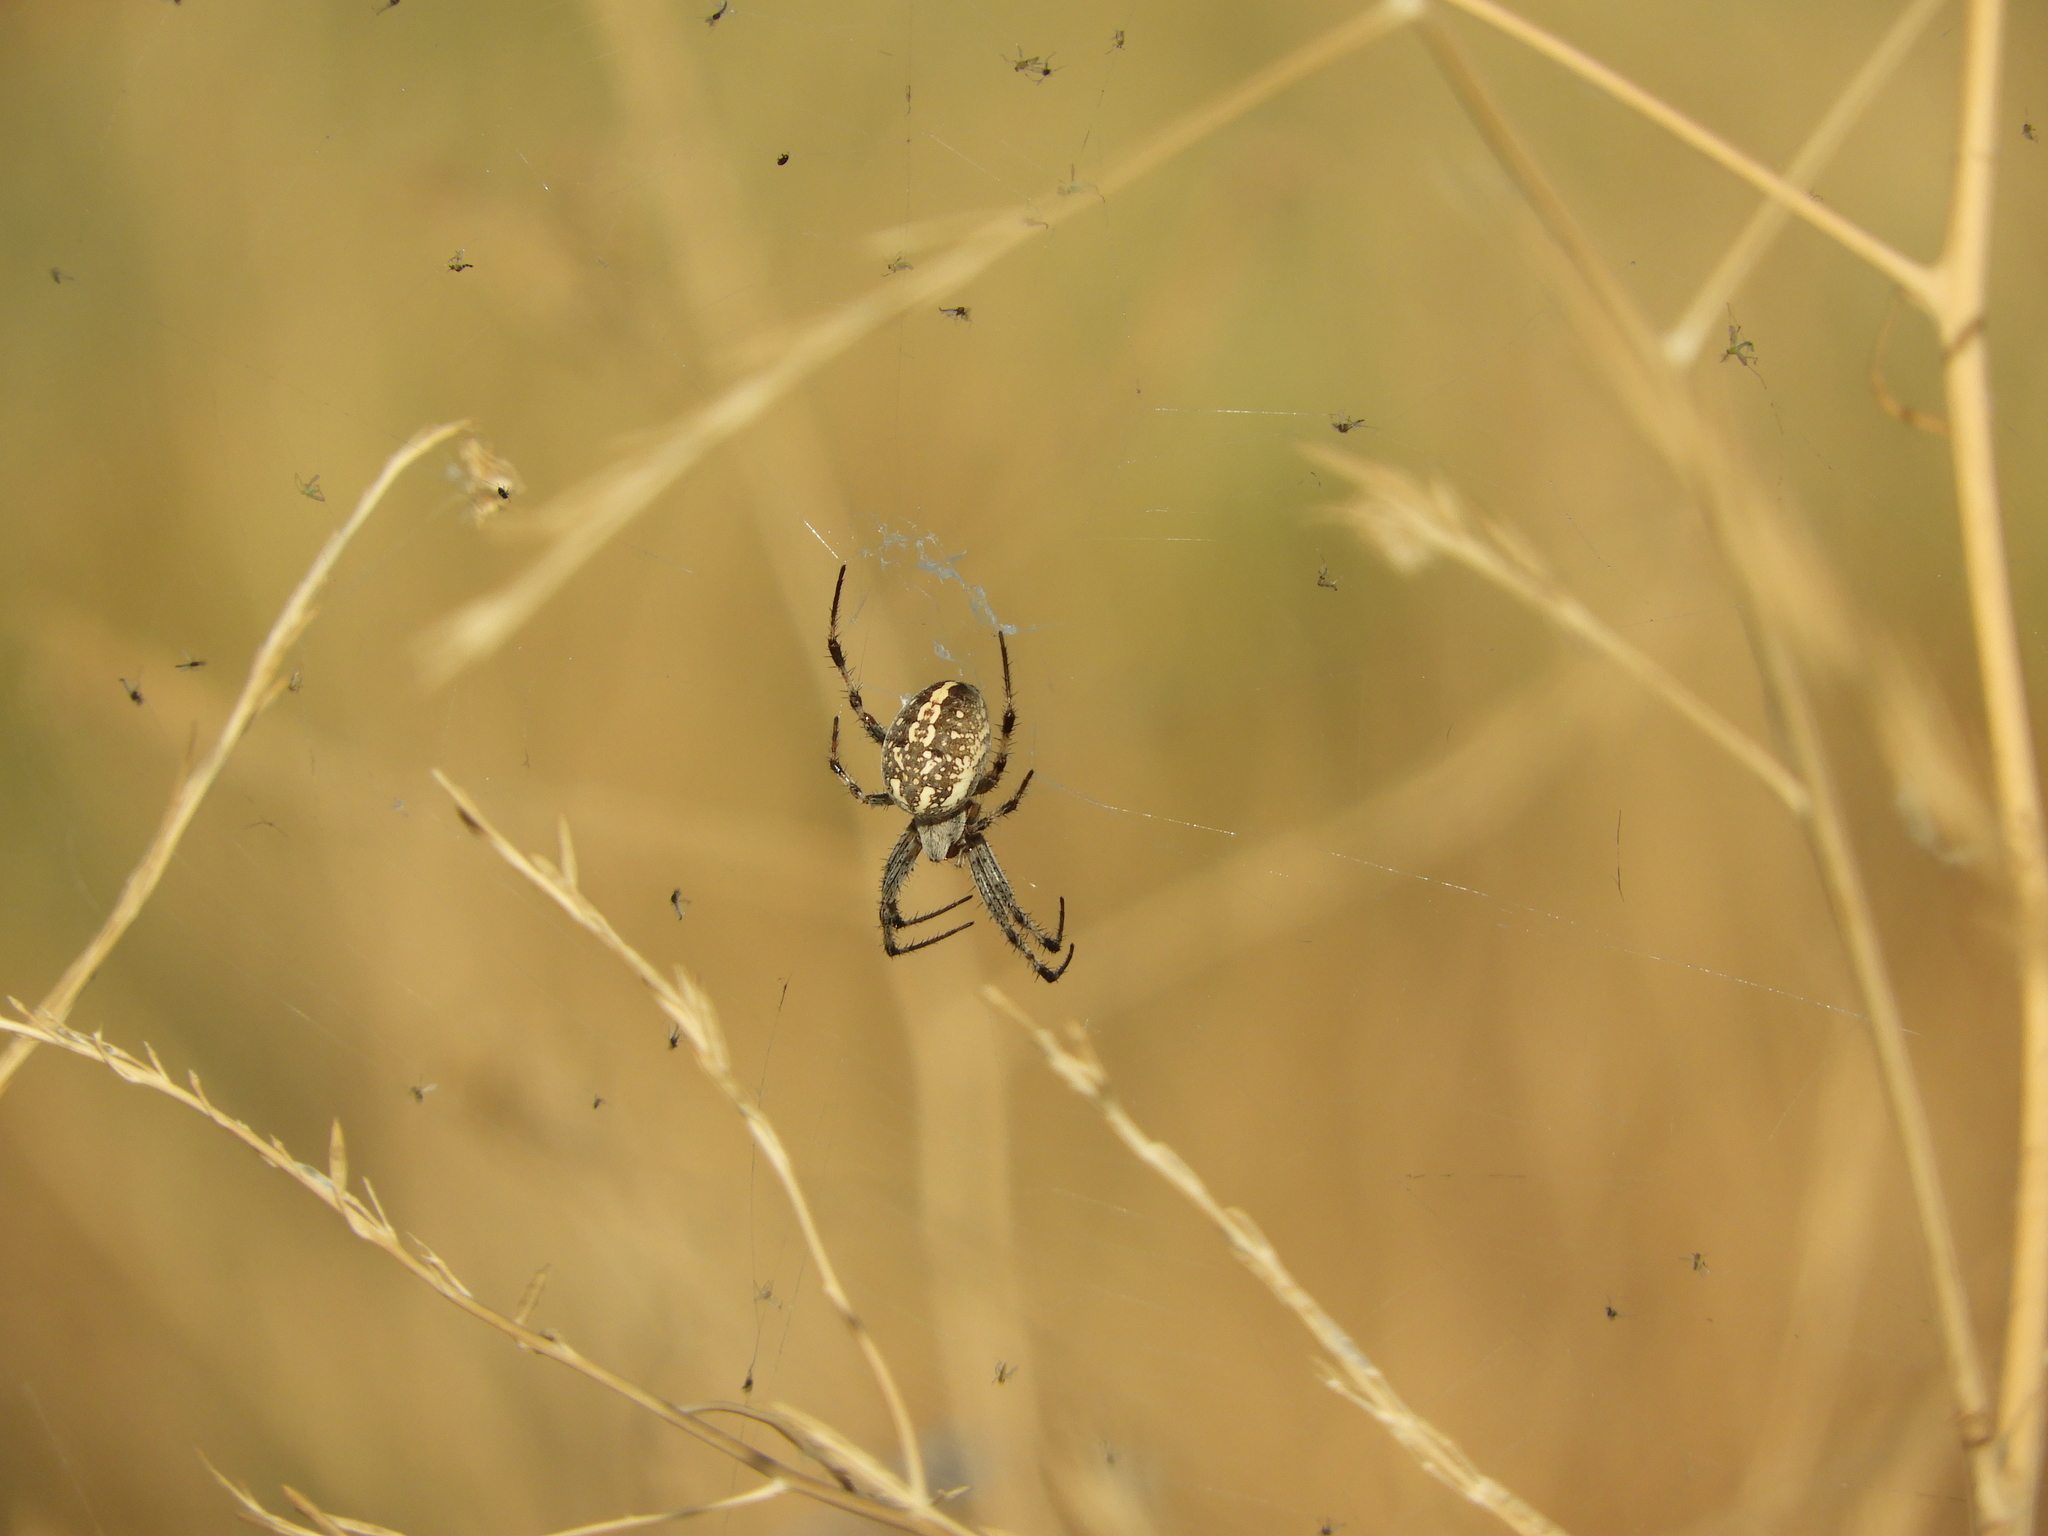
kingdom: Animalia
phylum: Arthropoda
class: Arachnida
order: Araneae
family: Araneidae
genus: Neoscona
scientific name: Neoscona oaxacensis
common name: Orb weavers
